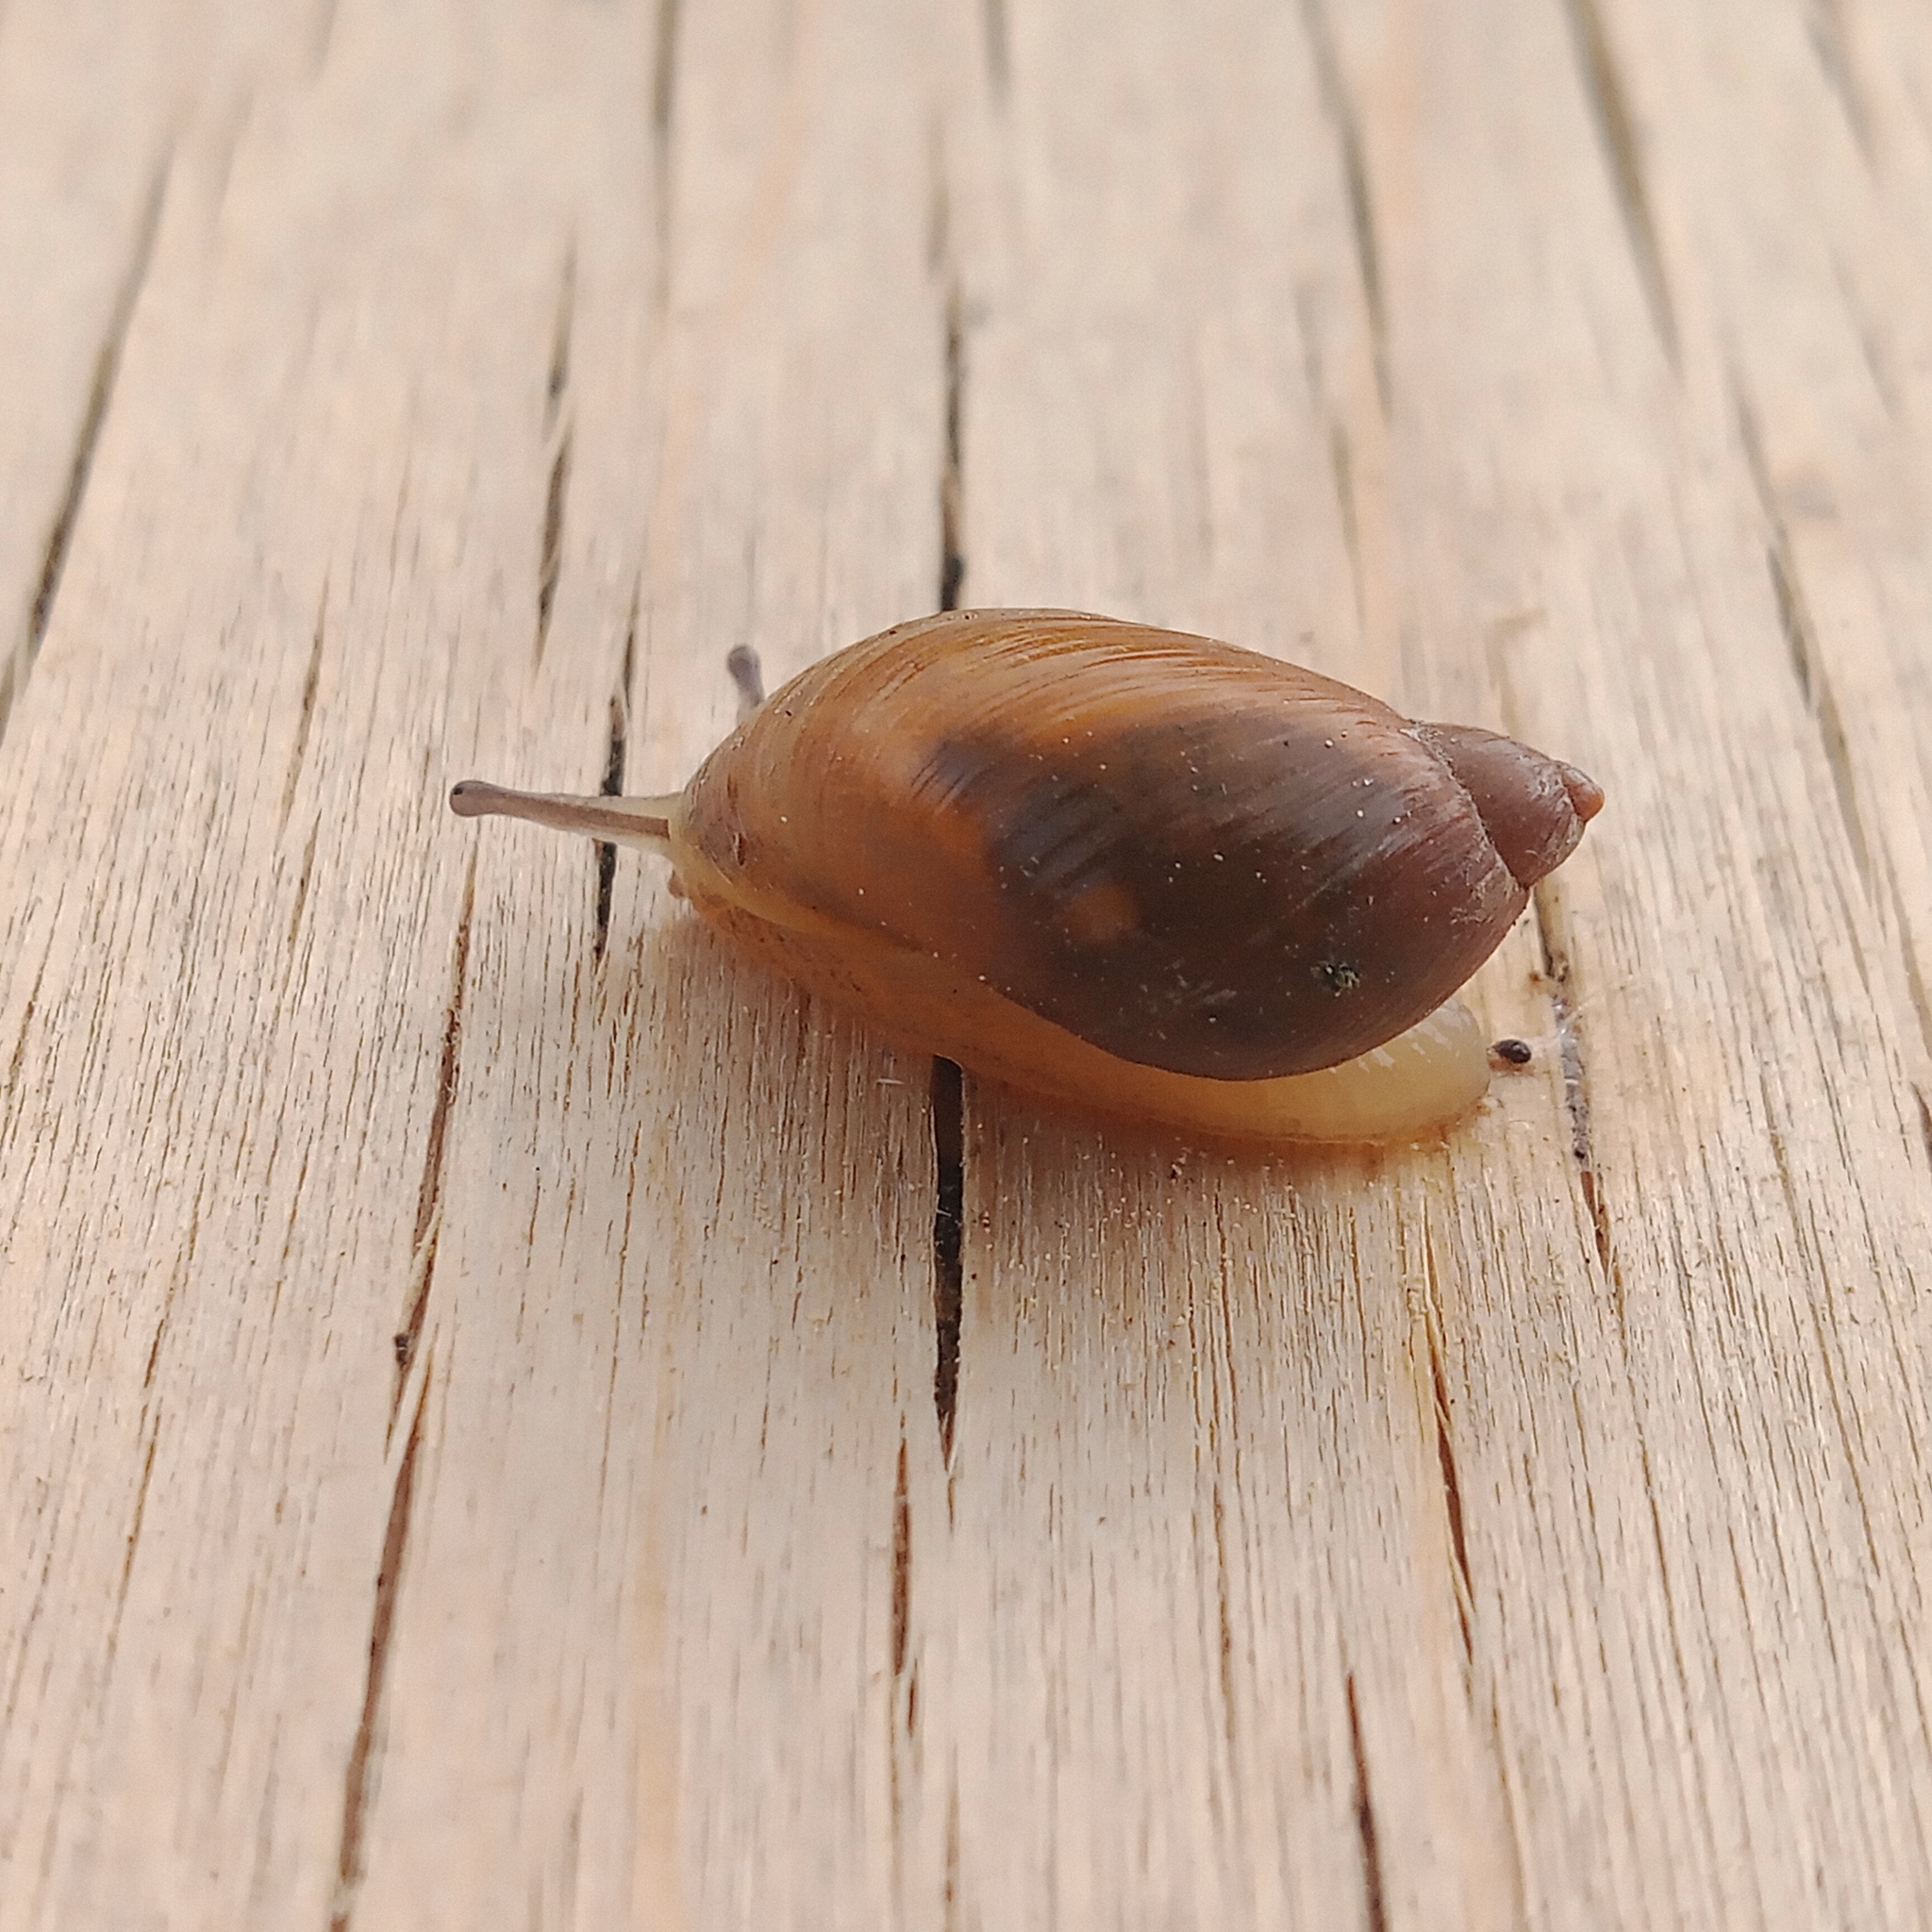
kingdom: Animalia
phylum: Mollusca
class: Gastropoda
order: Stylommatophora
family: Succineidae
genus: Succinea
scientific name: Succinea putris
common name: European ambersnail
